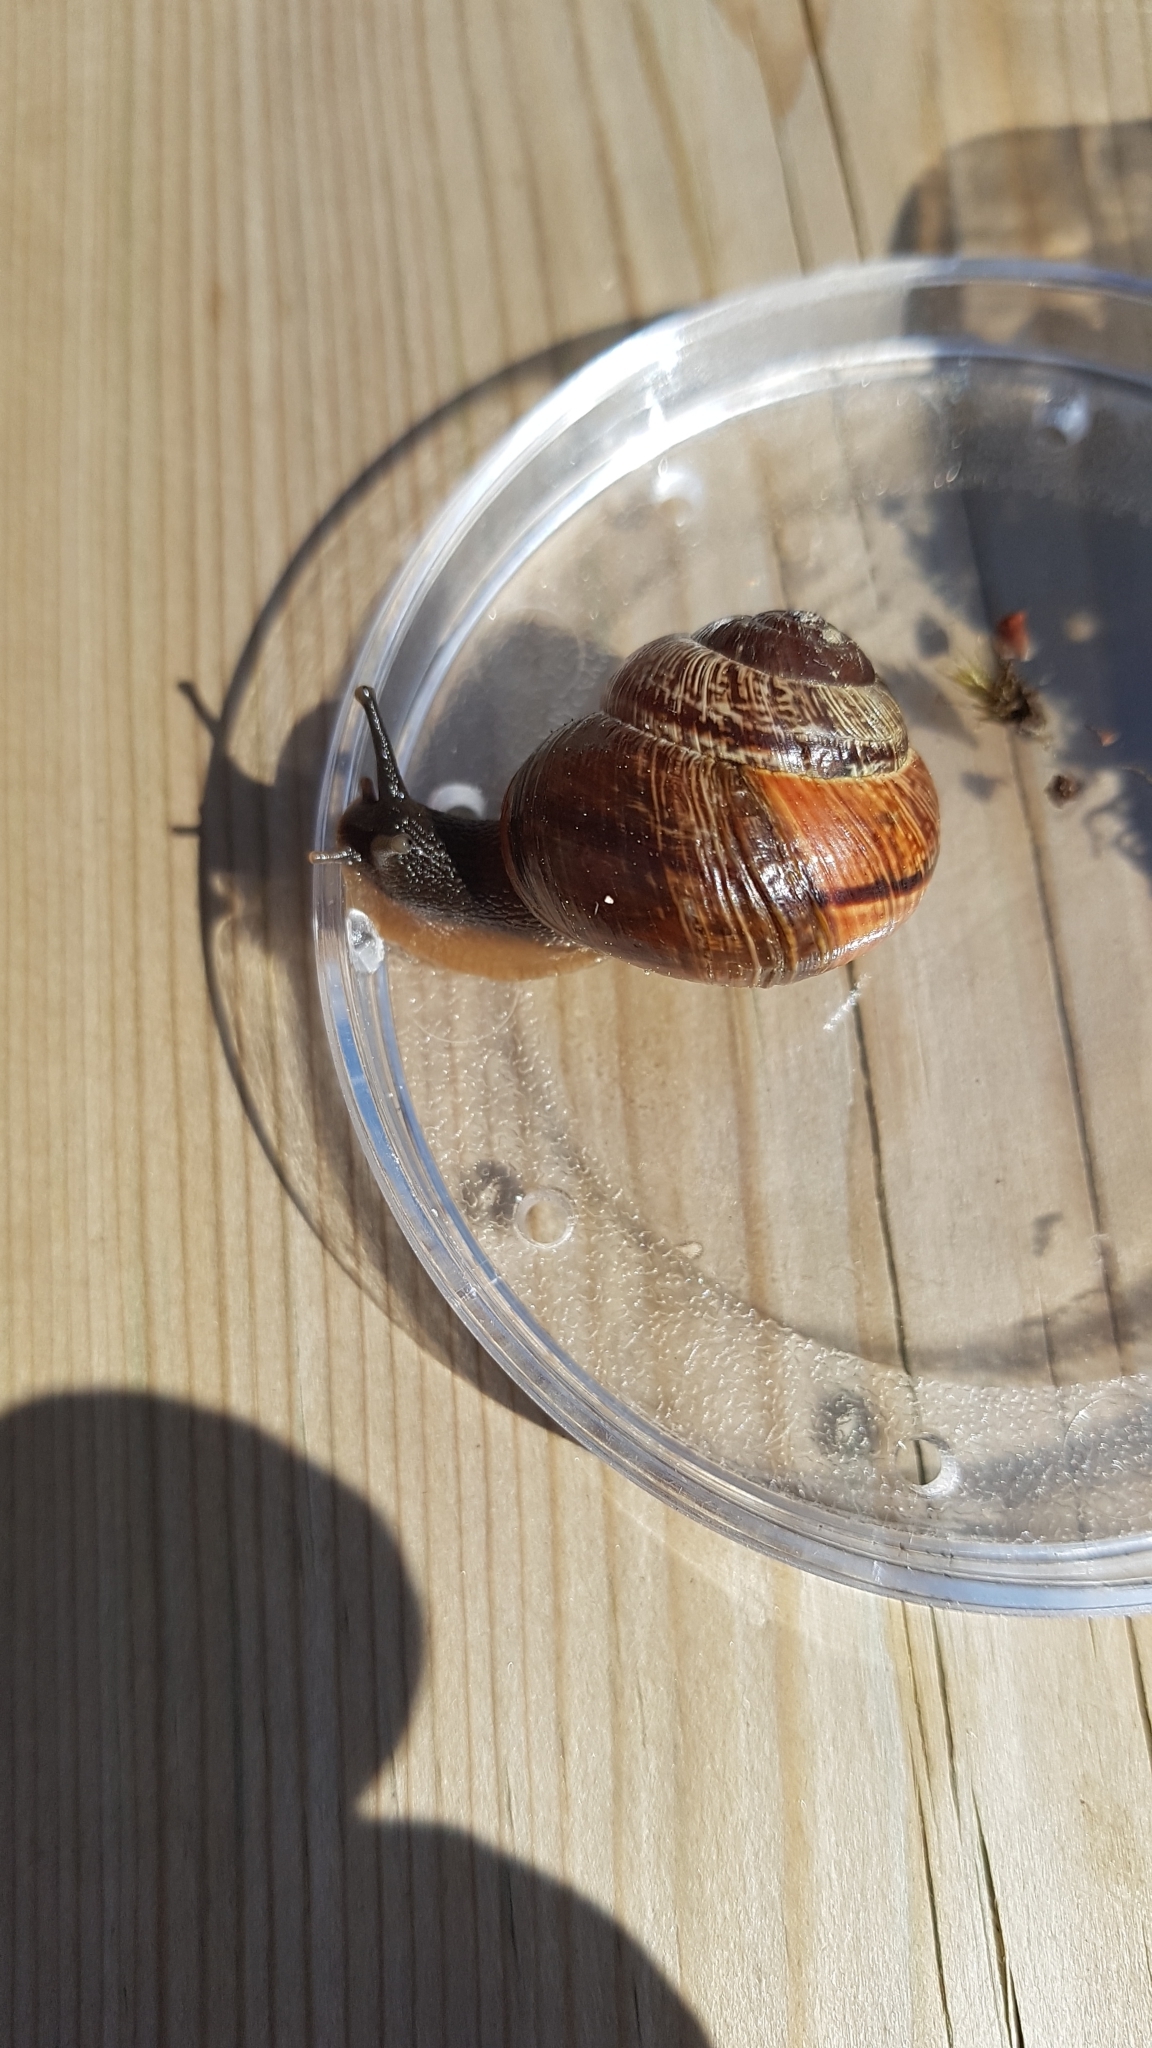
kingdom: Animalia
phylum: Mollusca
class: Gastropoda
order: Stylommatophora
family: Helicidae
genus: Arianta
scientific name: Arianta arbustorum
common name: Copse snail
